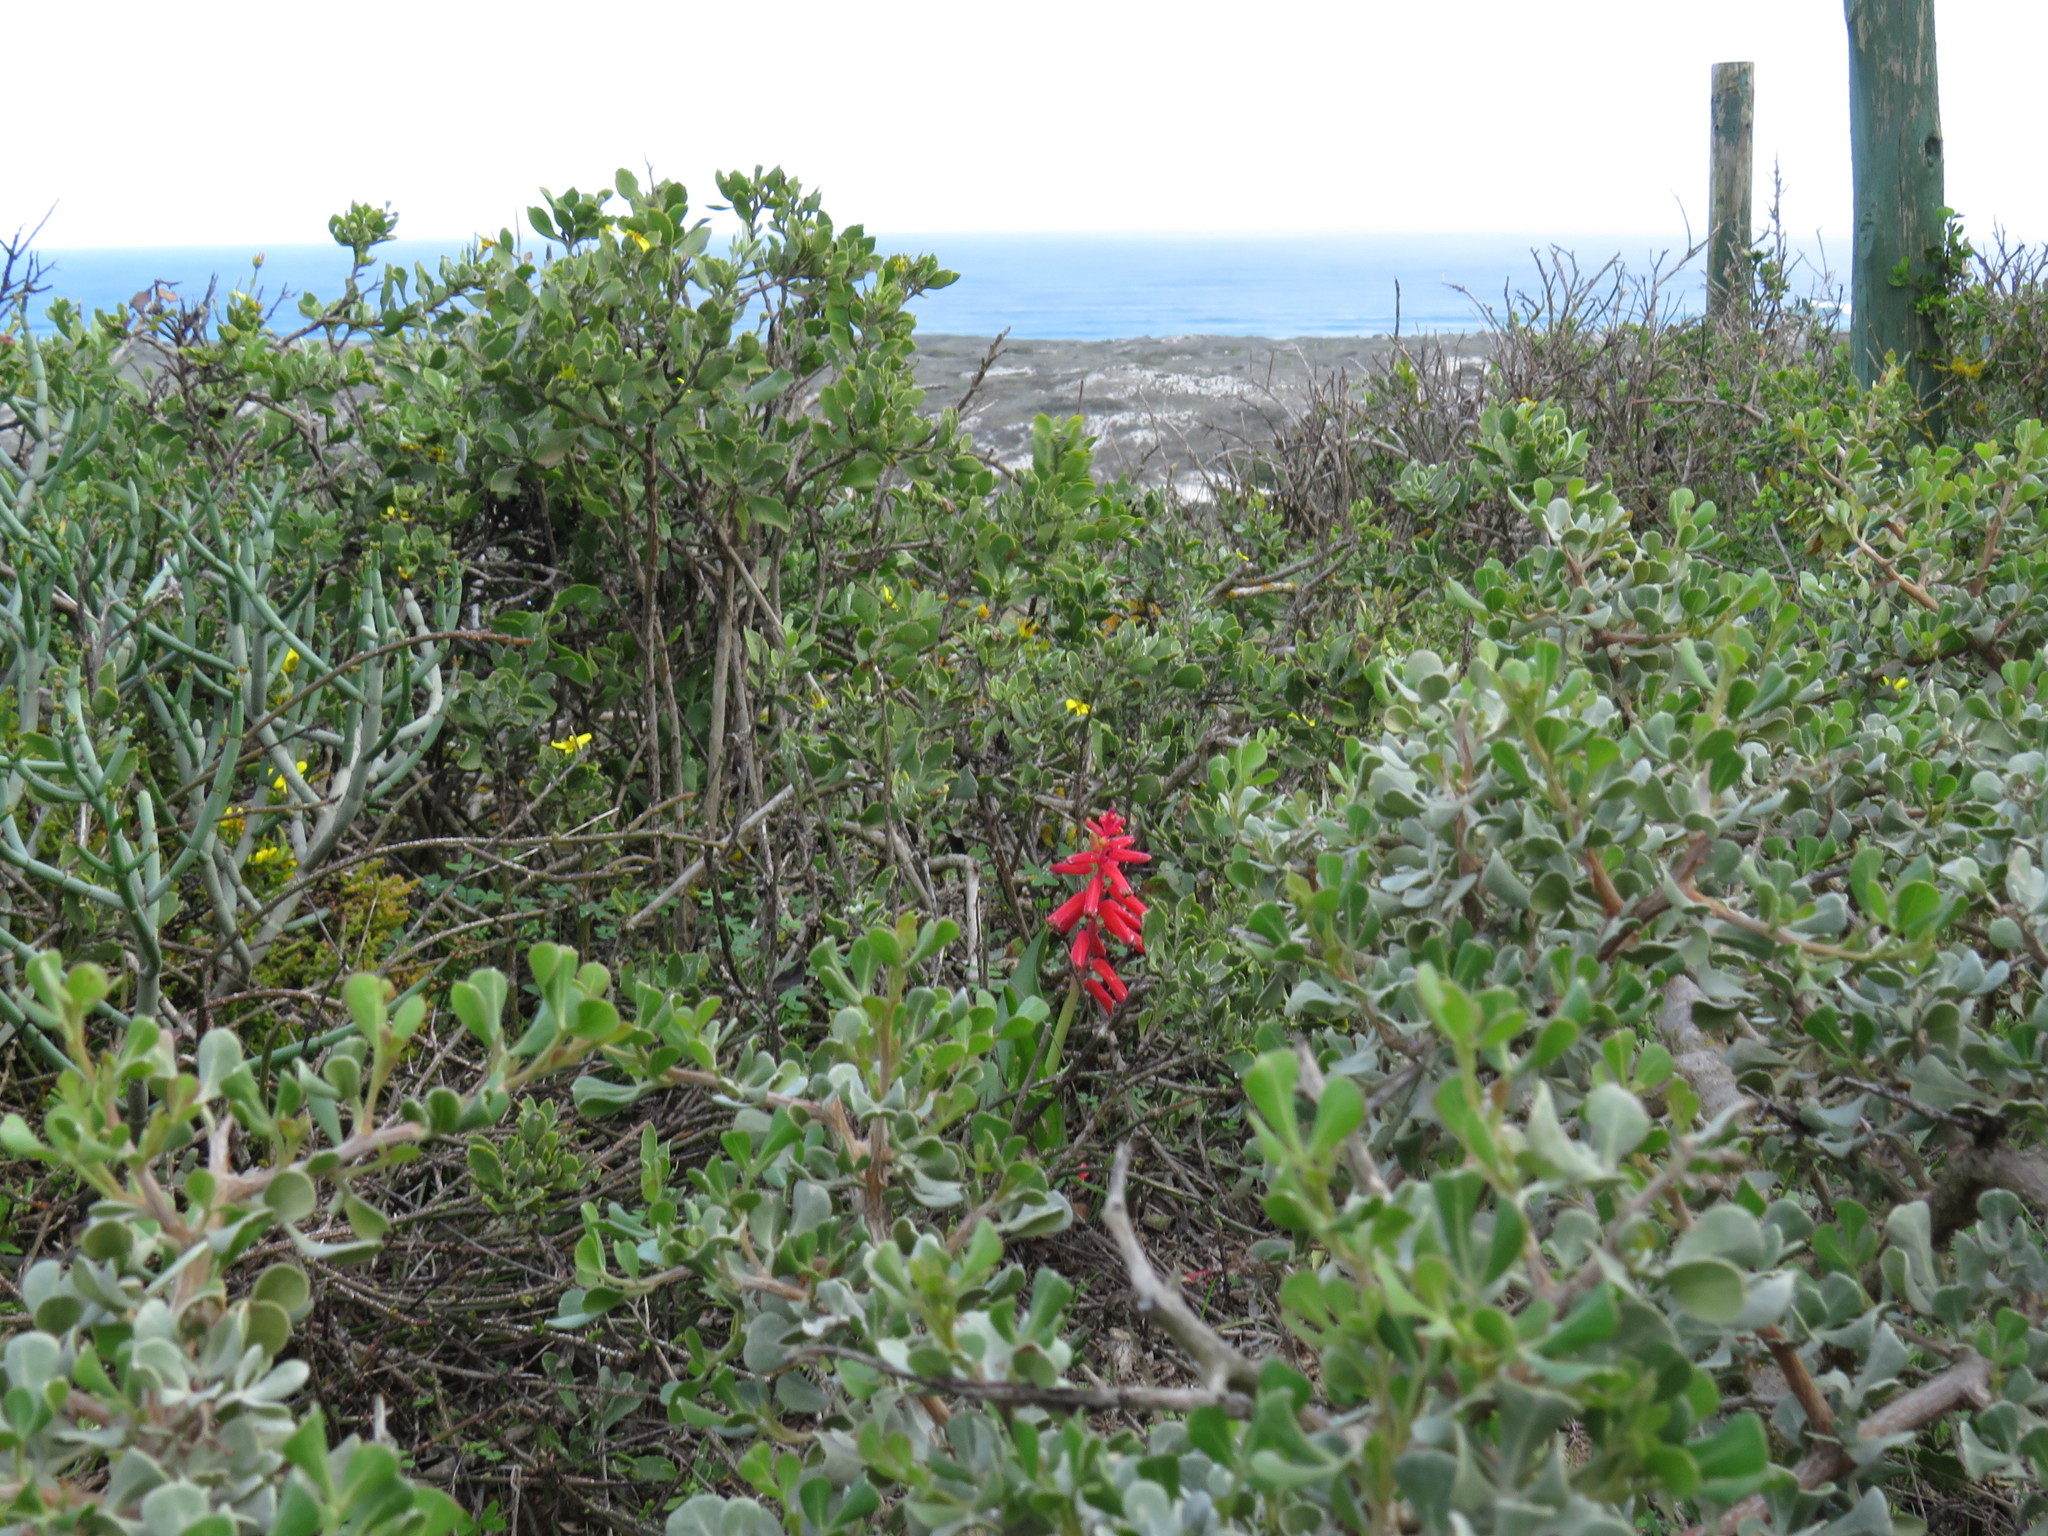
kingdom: Plantae
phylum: Tracheophyta
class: Liliopsida
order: Asparagales
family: Asparagaceae
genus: Lachenalia
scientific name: Lachenalia bulbifera
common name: Red lachenalia
